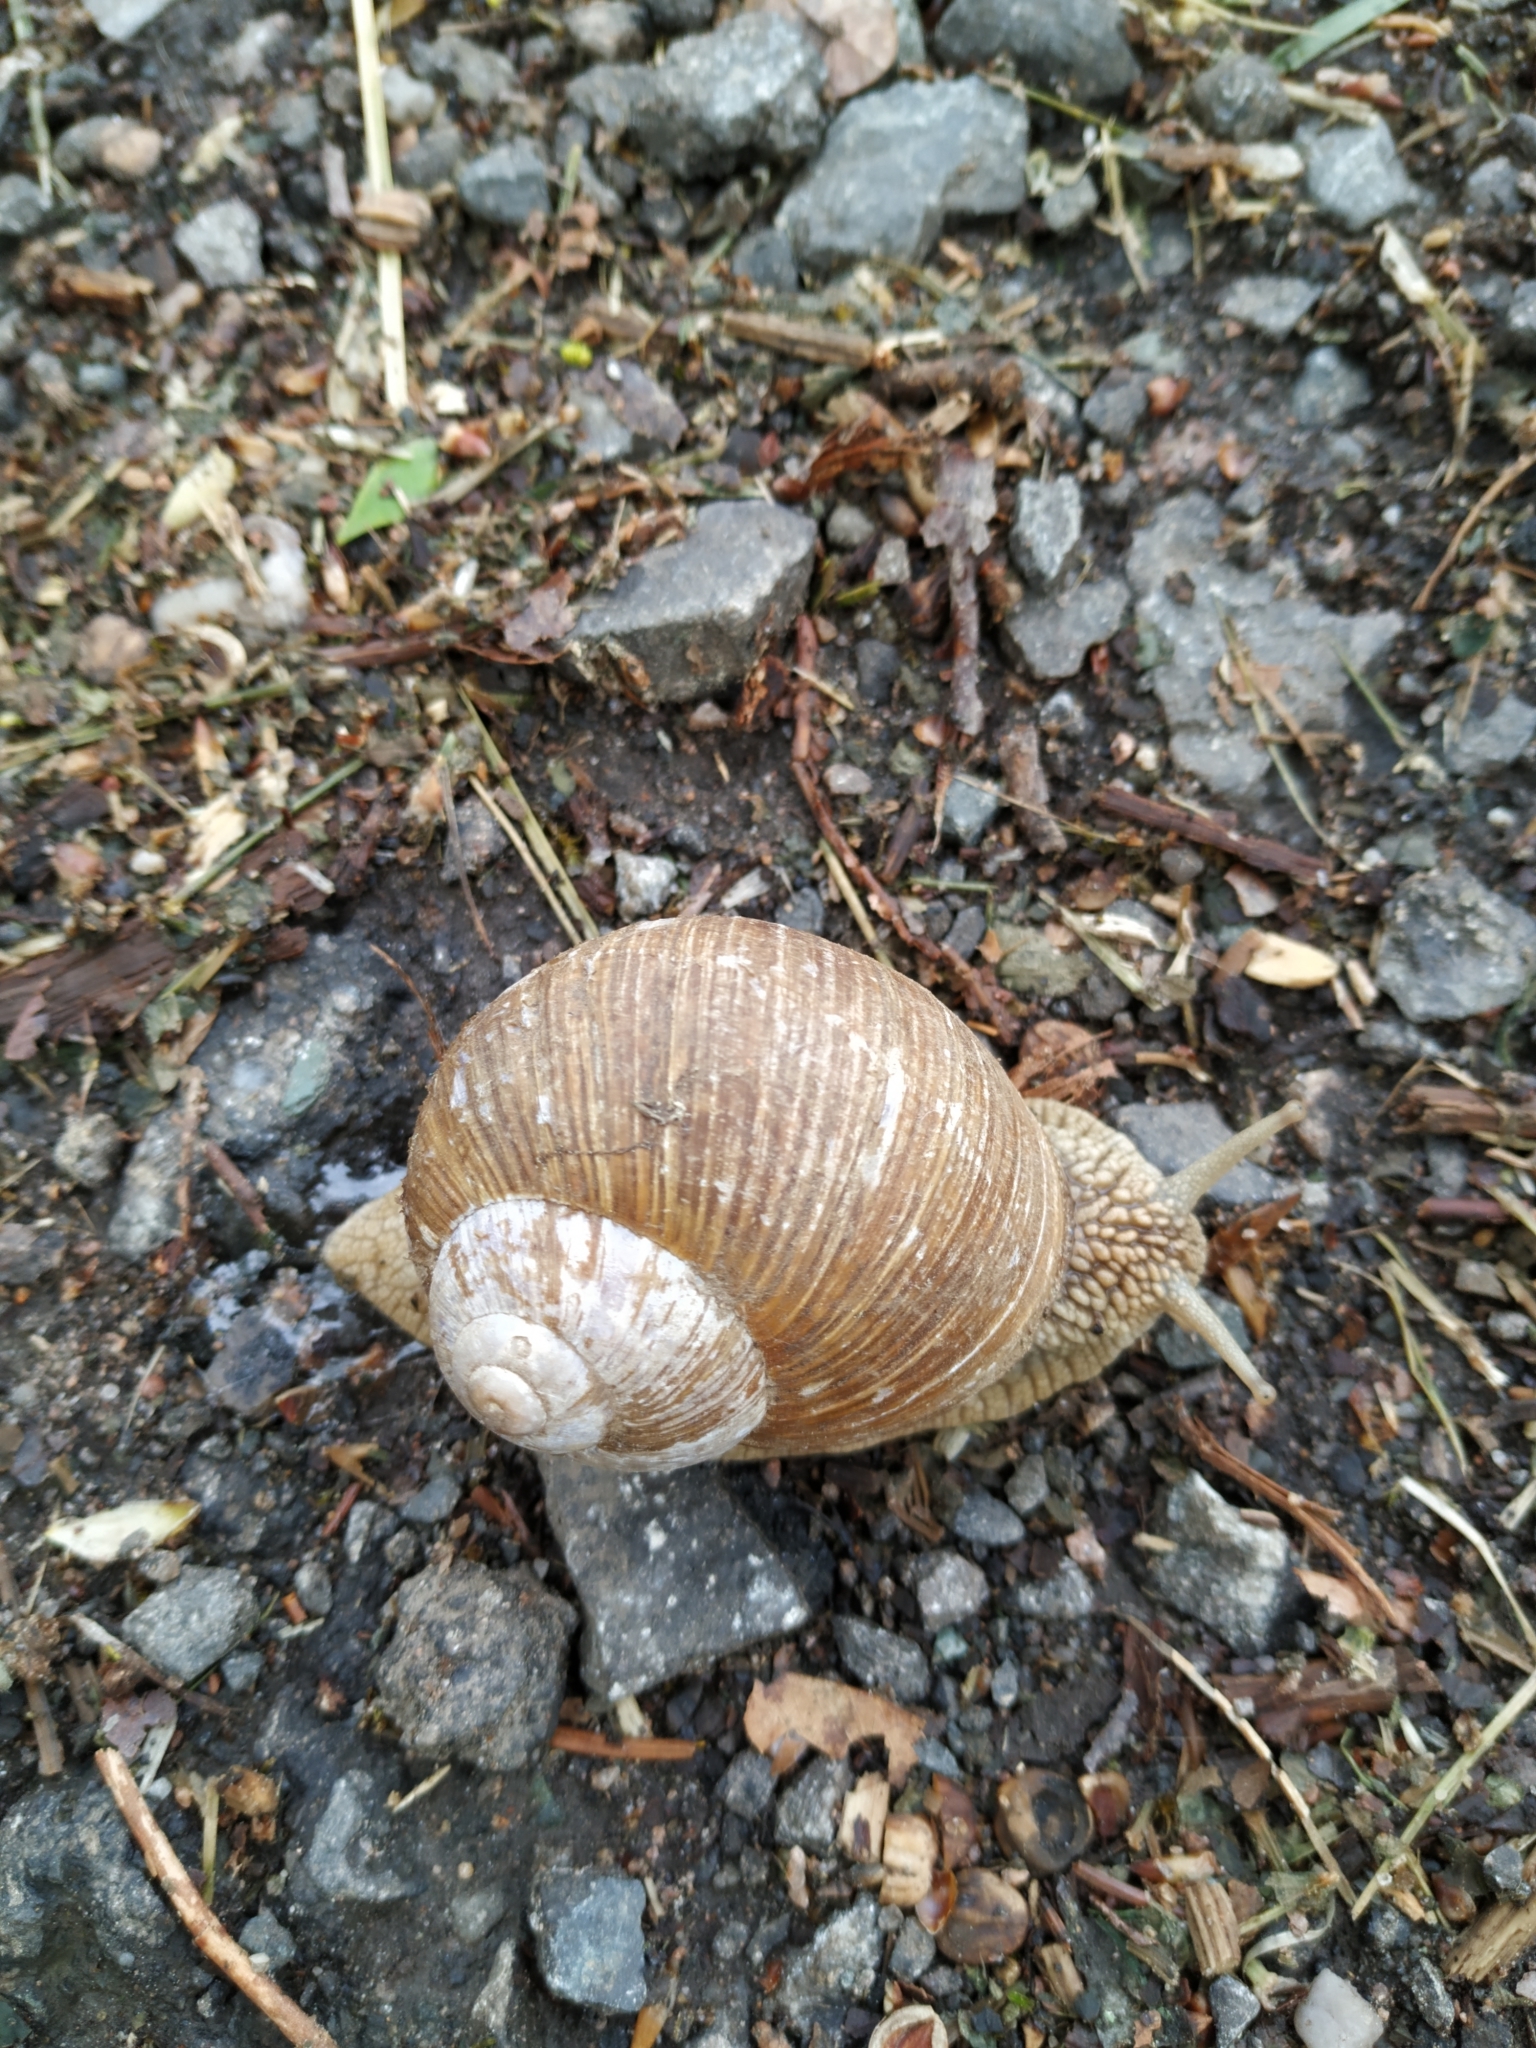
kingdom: Animalia
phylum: Mollusca
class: Gastropoda
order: Stylommatophora
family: Helicidae
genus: Helix
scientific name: Helix pomatia
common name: Roman snail
